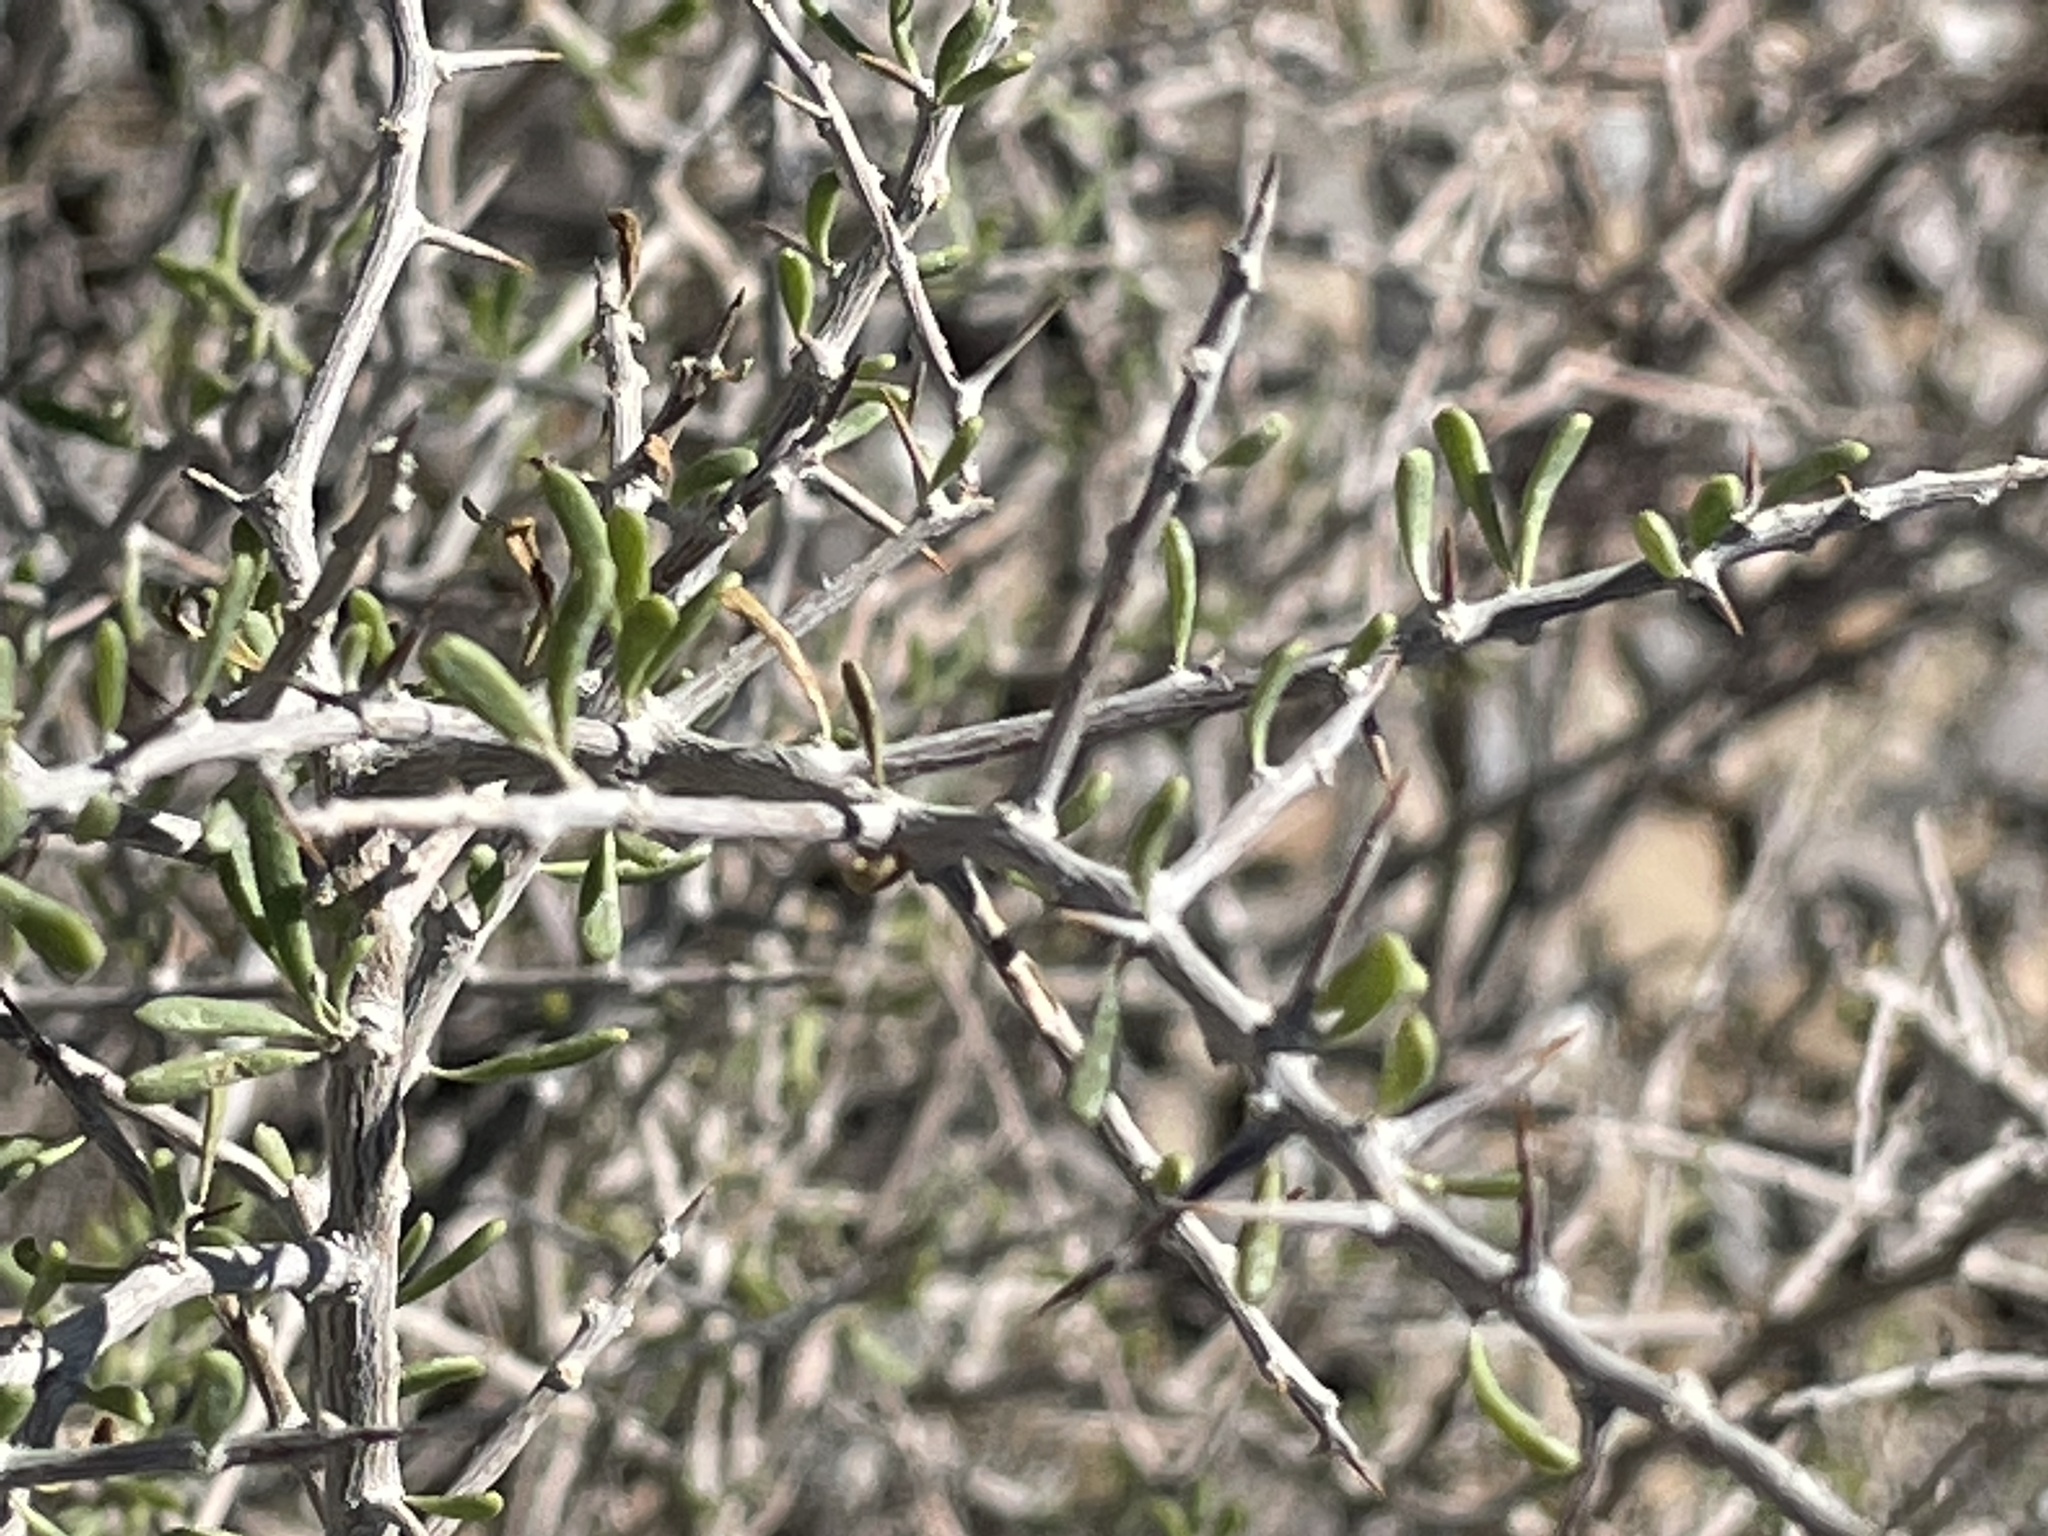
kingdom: Plantae
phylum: Tracheophyta
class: Magnoliopsida
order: Solanales
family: Solanaceae
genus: Lycium
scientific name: Lycium andersonii
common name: Water-jacket
